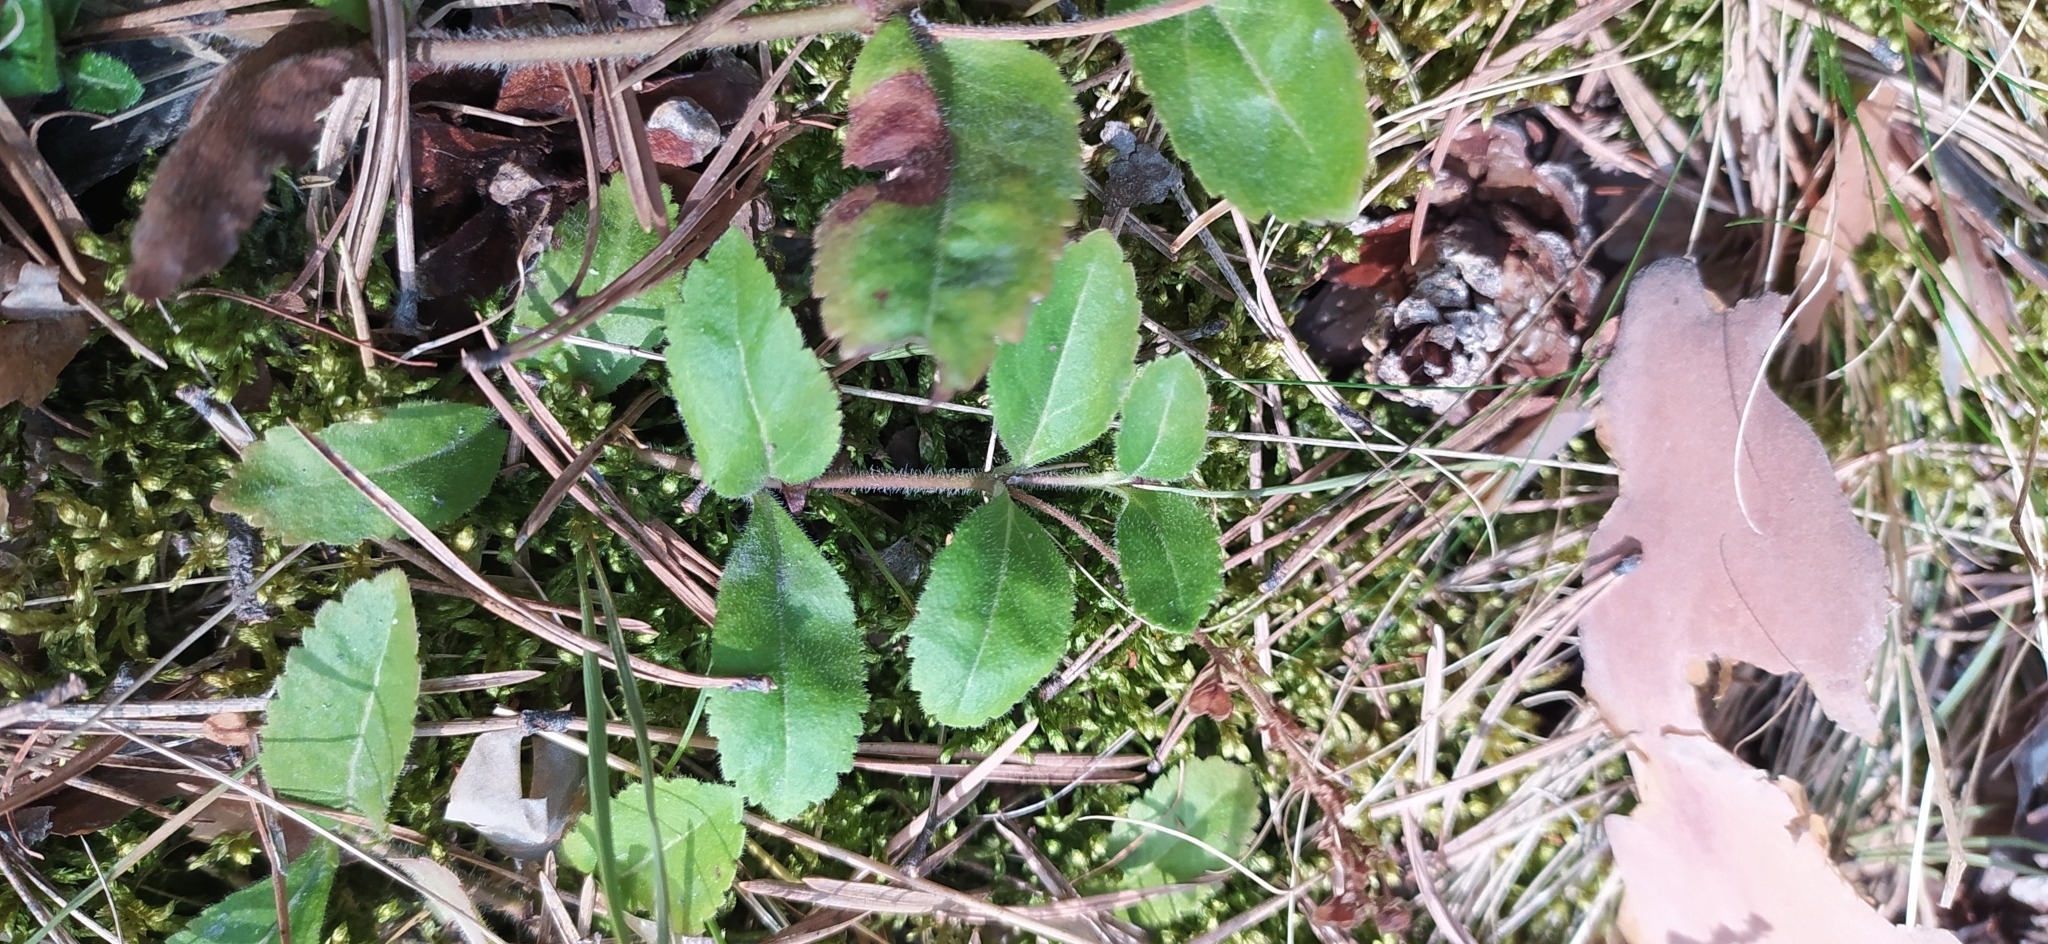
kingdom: Plantae
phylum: Tracheophyta
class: Magnoliopsida
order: Lamiales
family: Plantaginaceae
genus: Veronica
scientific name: Veronica officinalis
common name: Common speedwell
